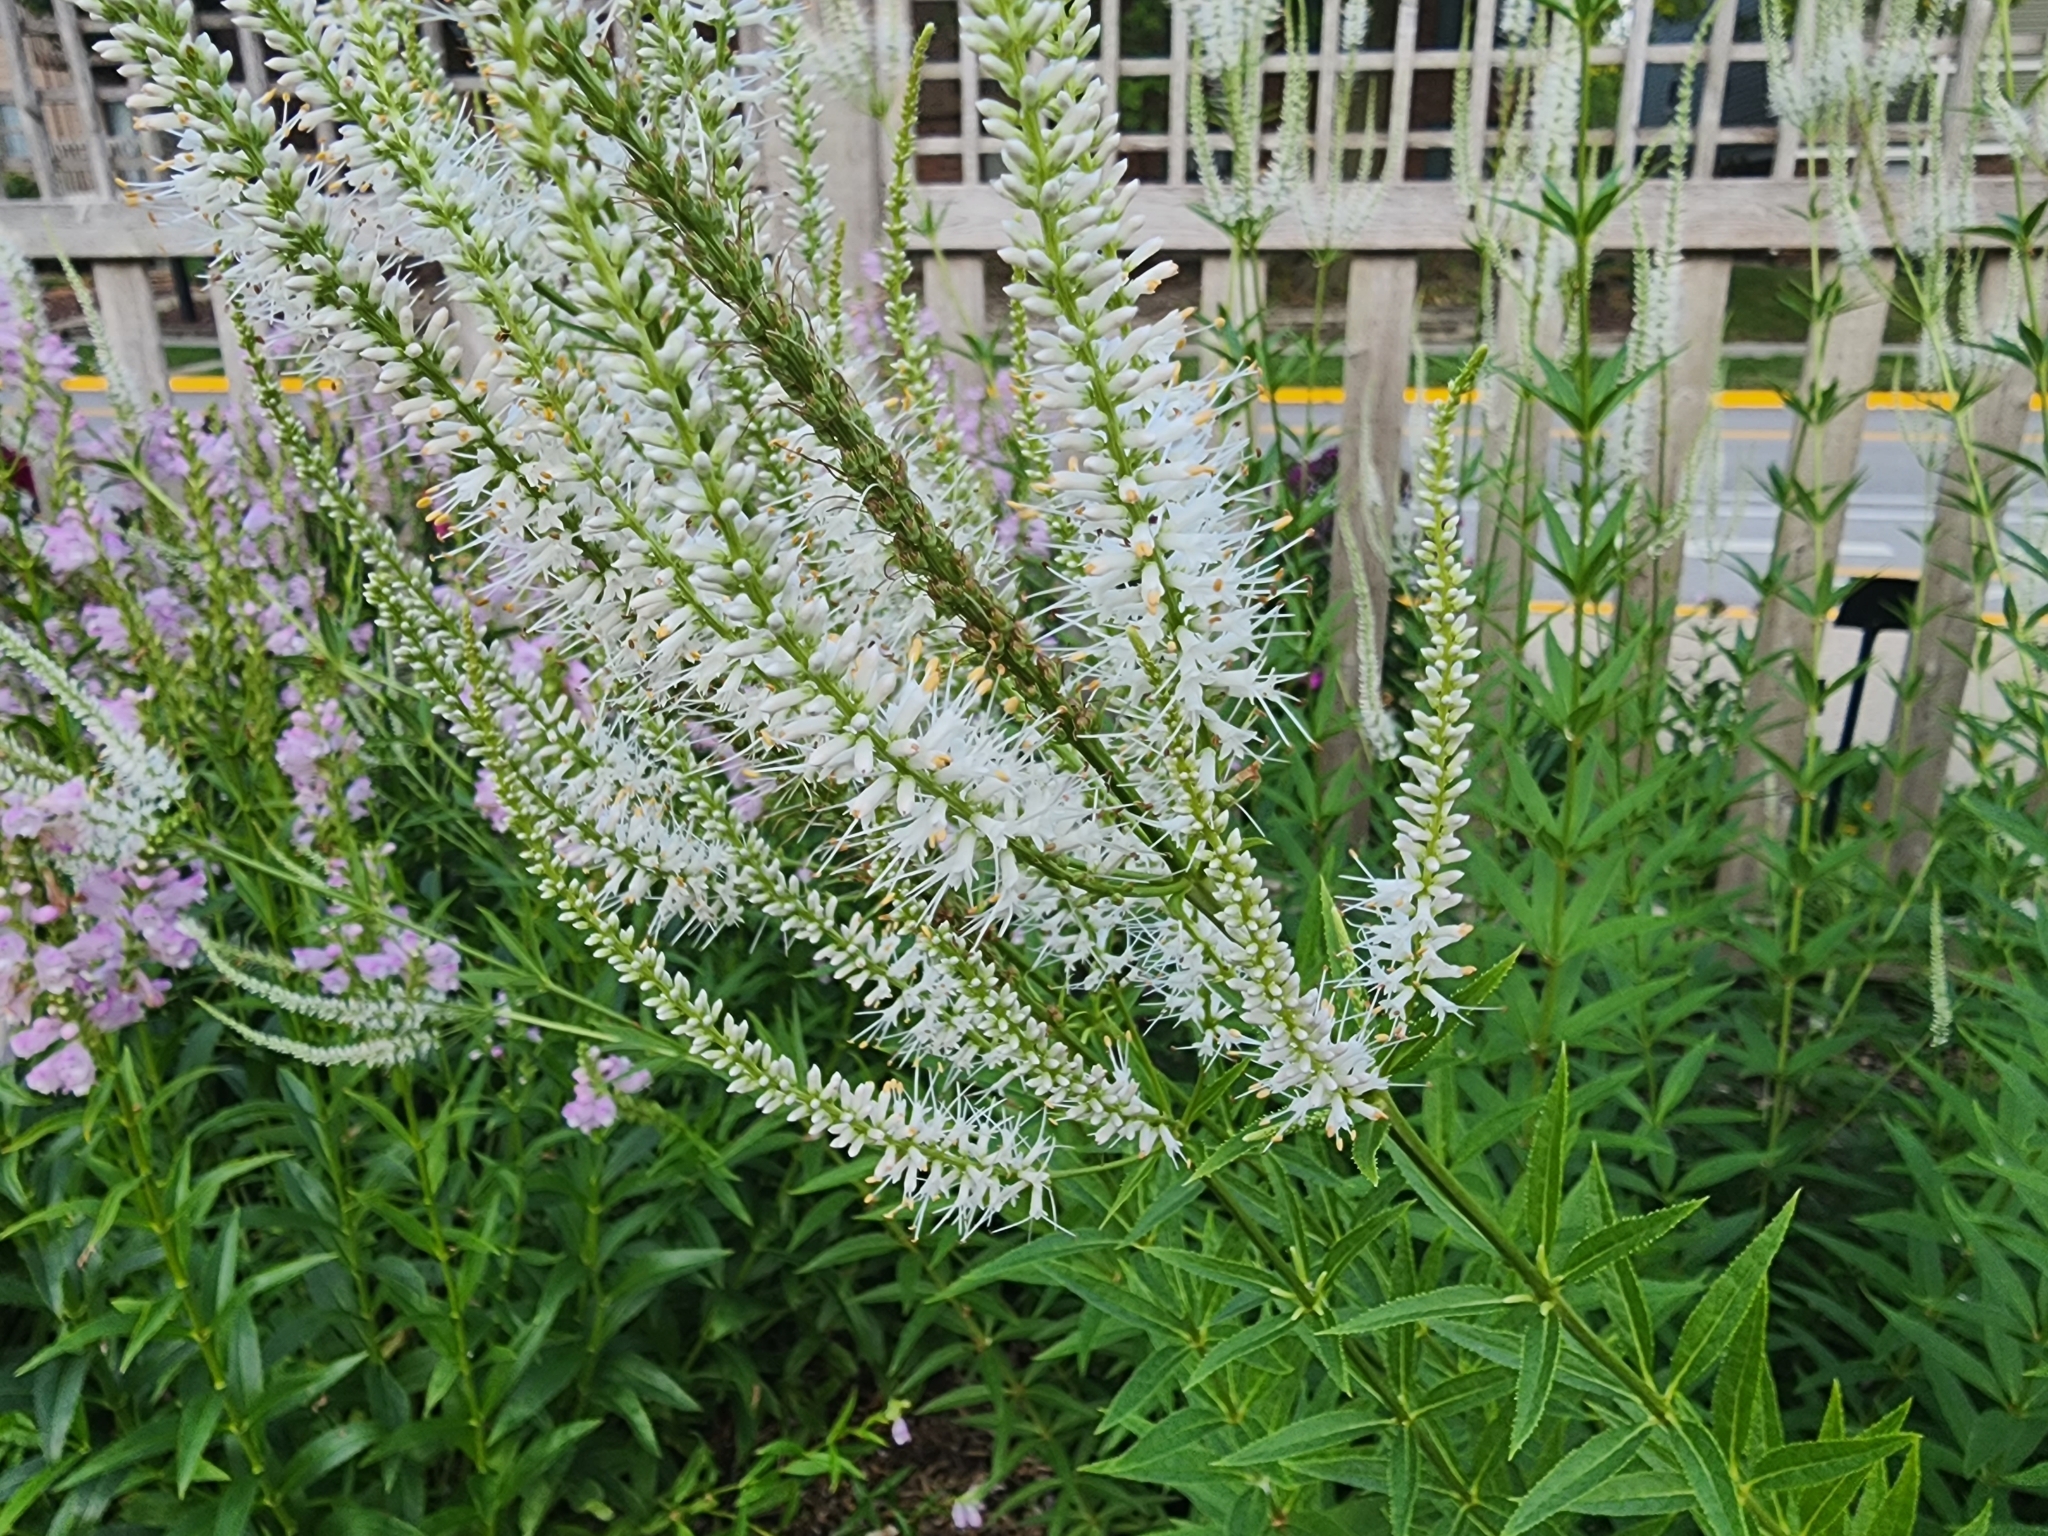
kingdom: Plantae
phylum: Tracheophyta
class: Magnoliopsida
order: Lamiales
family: Plantaginaceae
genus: Veronicastrum
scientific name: Veronicastrum virginicum
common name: Blackroot
